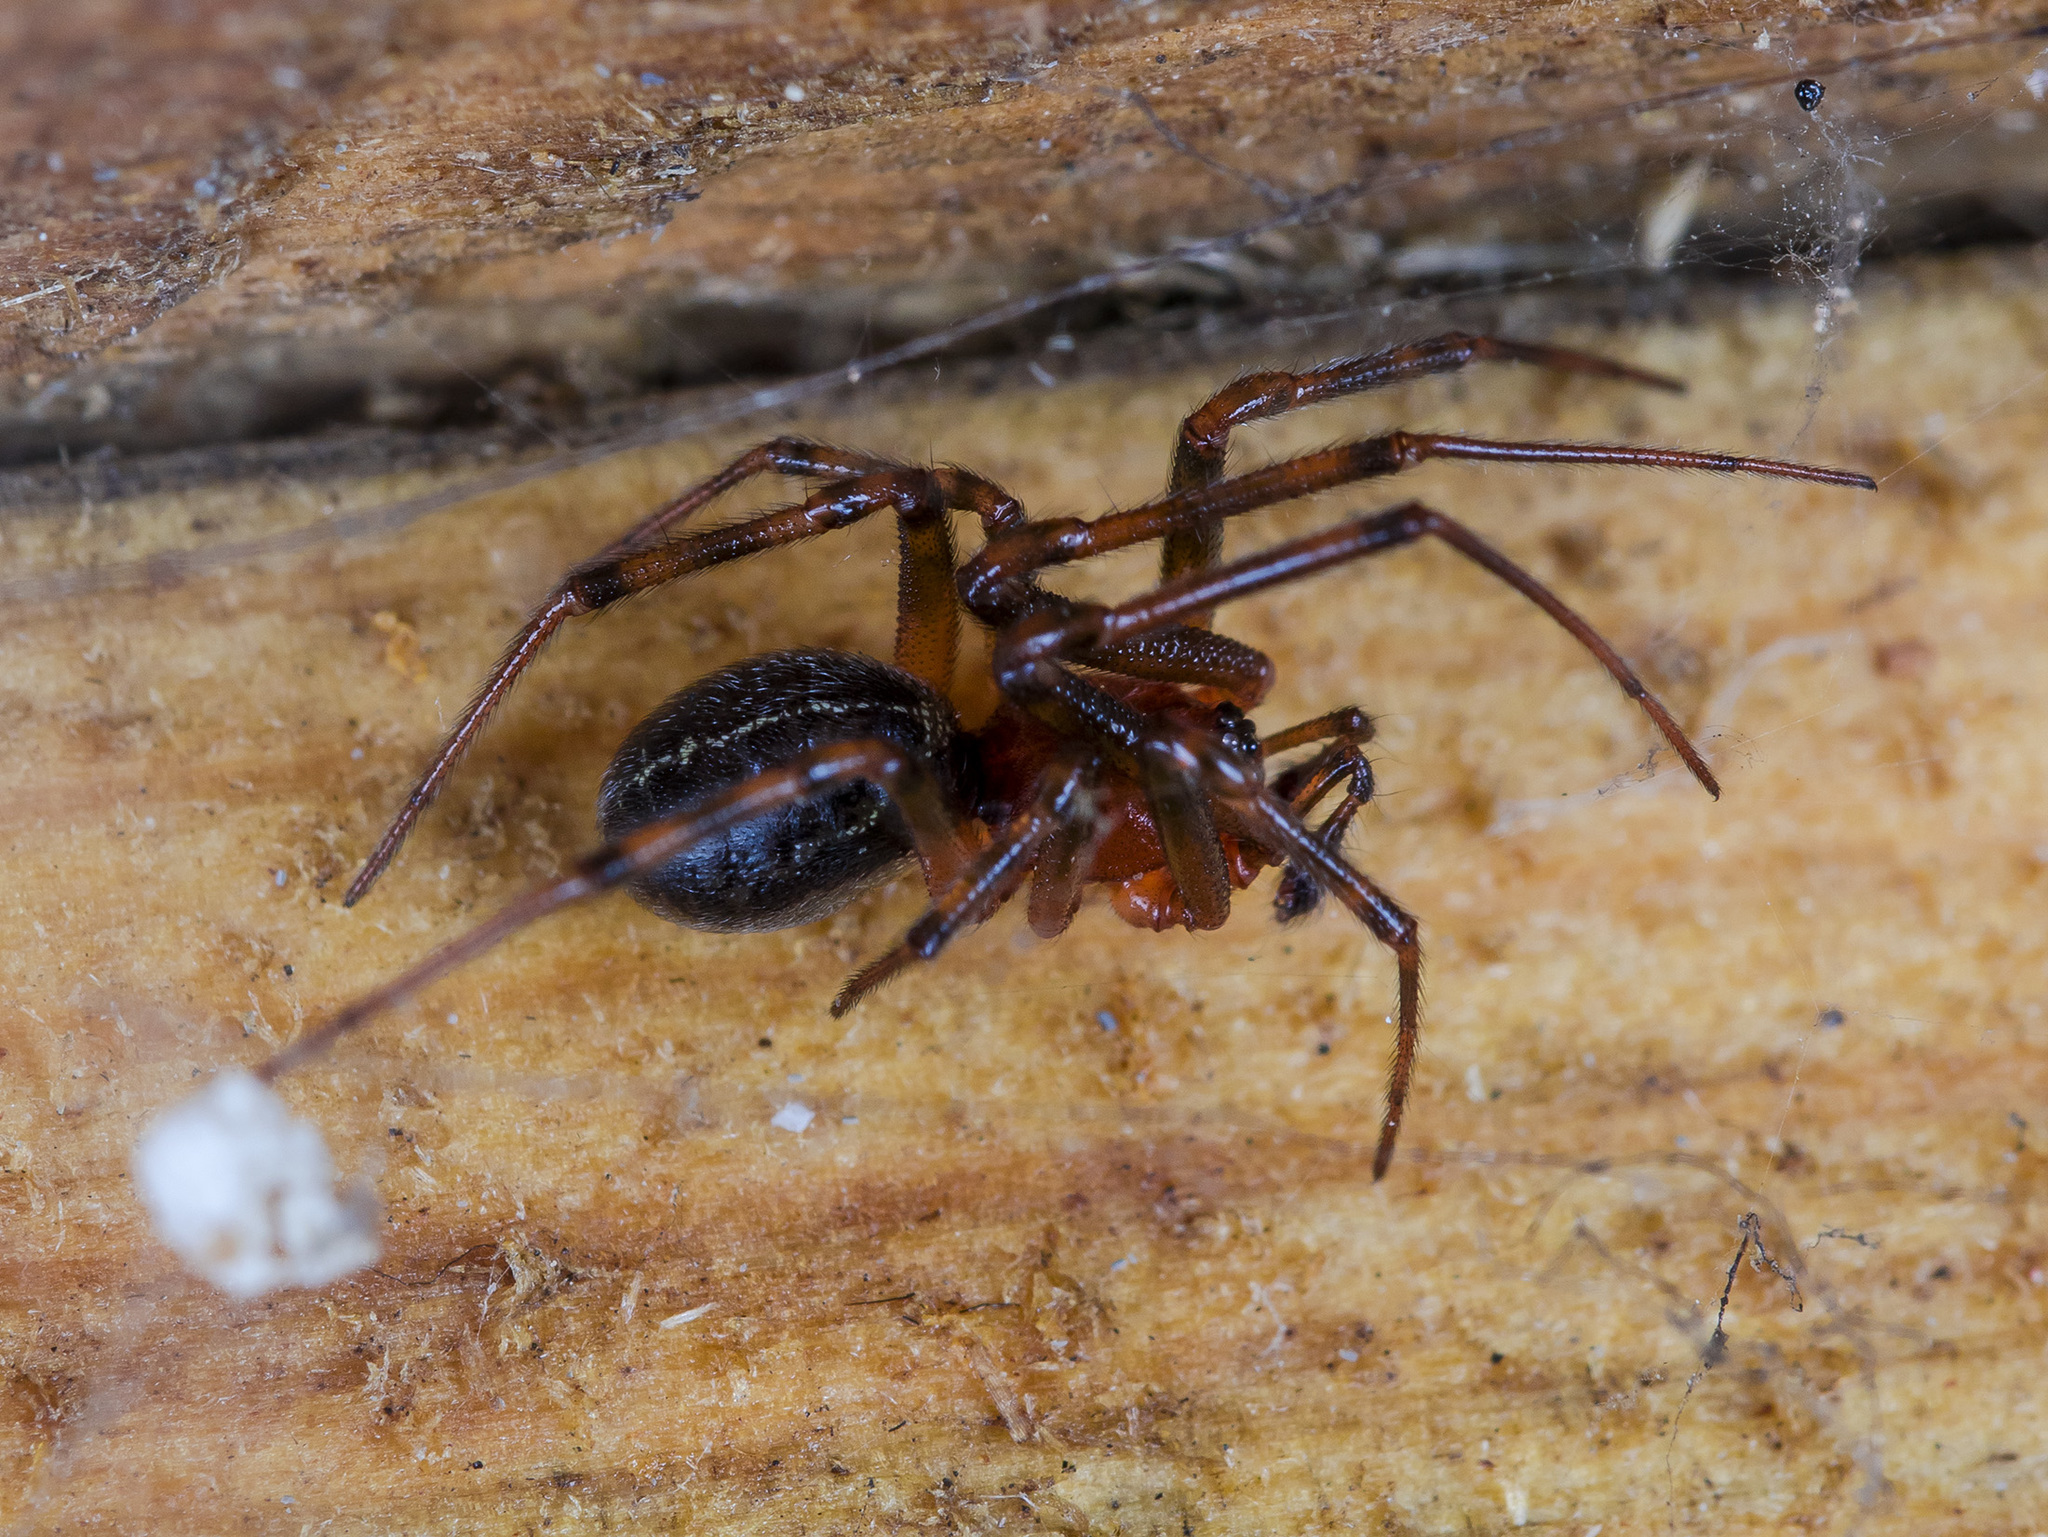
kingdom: Animalia
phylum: Arthropoda
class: Arachnida
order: Araneae
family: Theridiidae
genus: Steatoda
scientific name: Steatoda castanea
